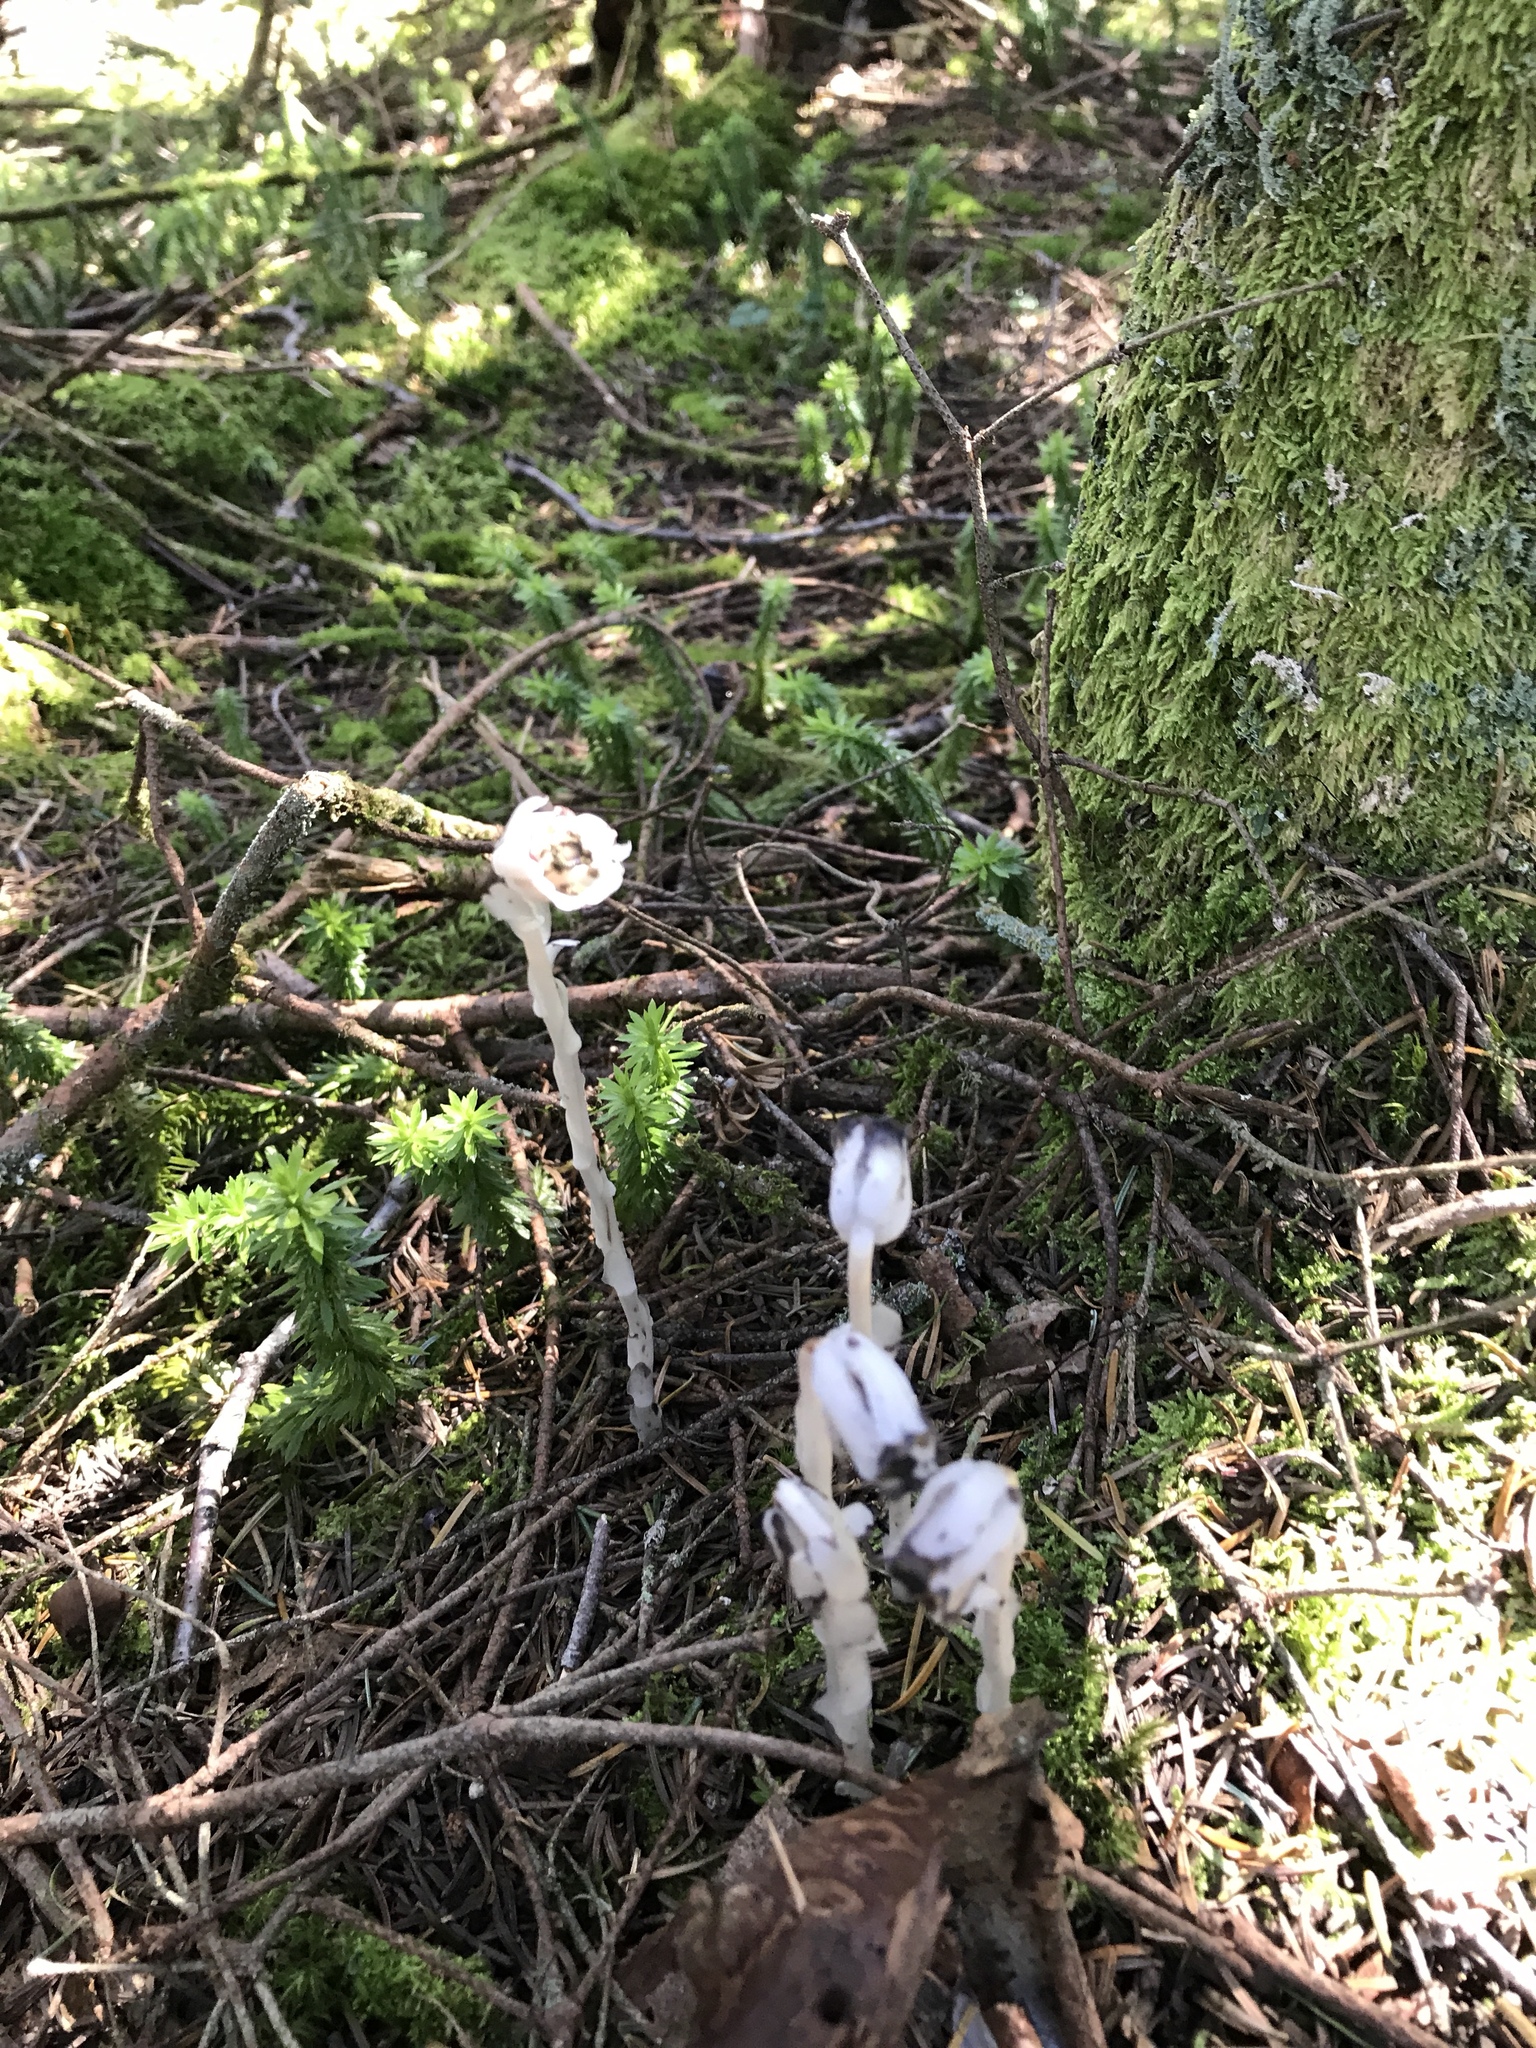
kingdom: Plantae
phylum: Tracheophyta
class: Magnoliopsida
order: Ericales
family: Ericaceae
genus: Monotropa
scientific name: Monotropa uniflora
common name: Convulsion root
